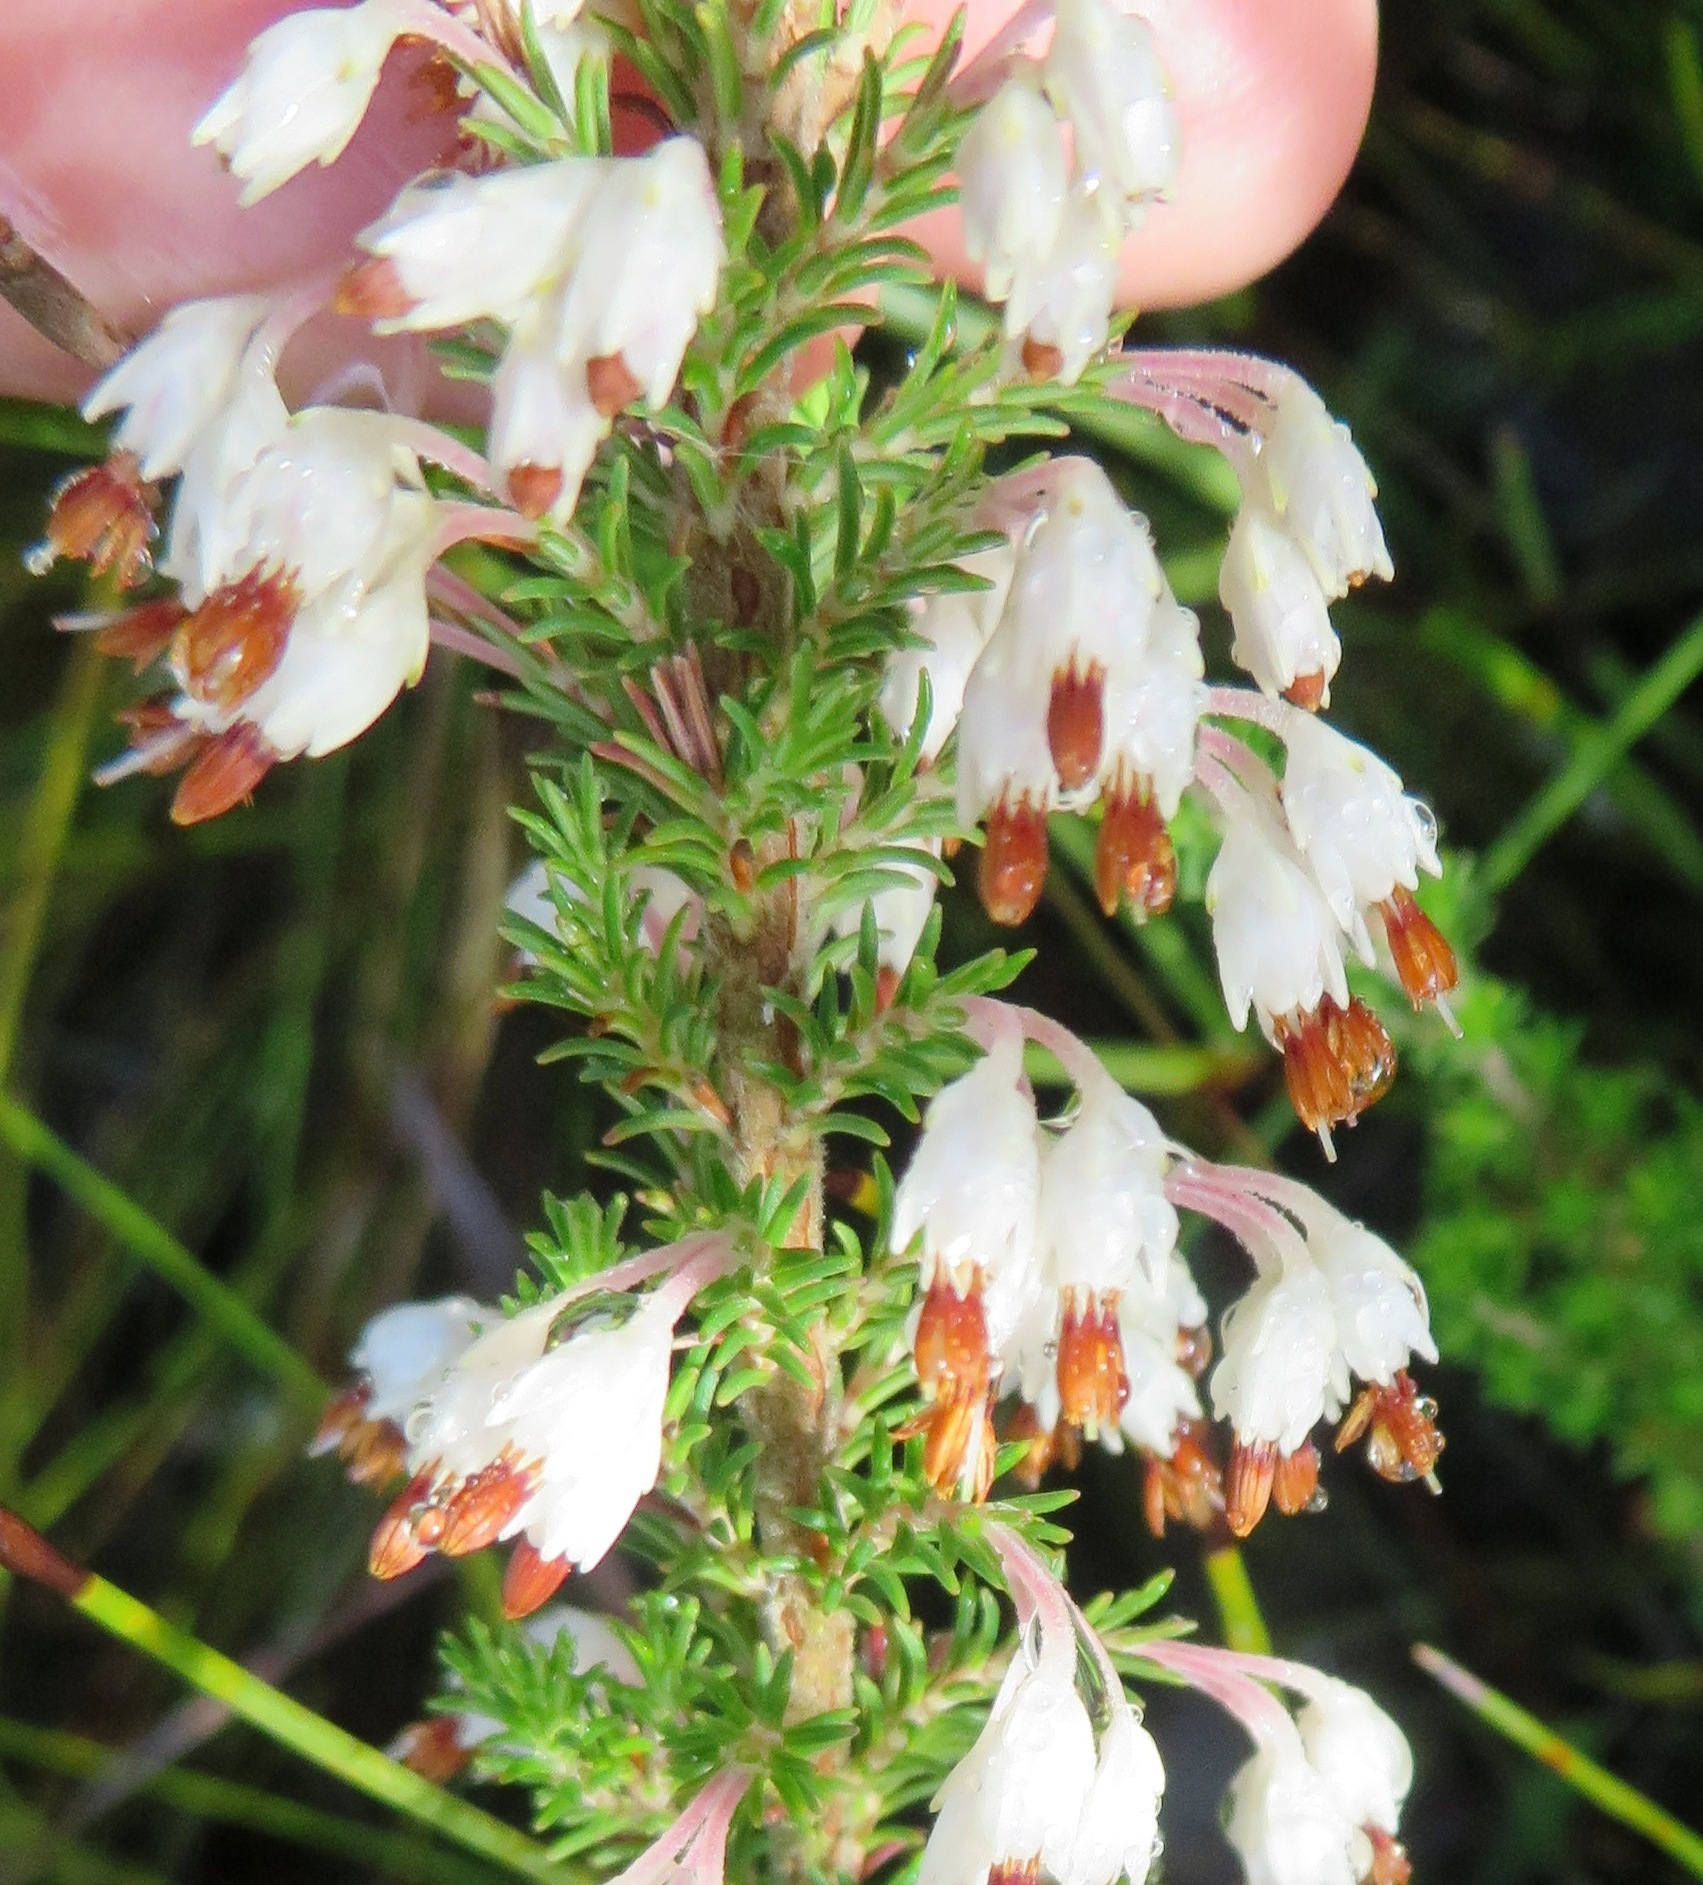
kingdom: Plantae
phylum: Tracheophyta
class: Magnoliopsida
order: Ericales
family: Ericaceae
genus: Erica
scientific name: Erica penicilliformis
